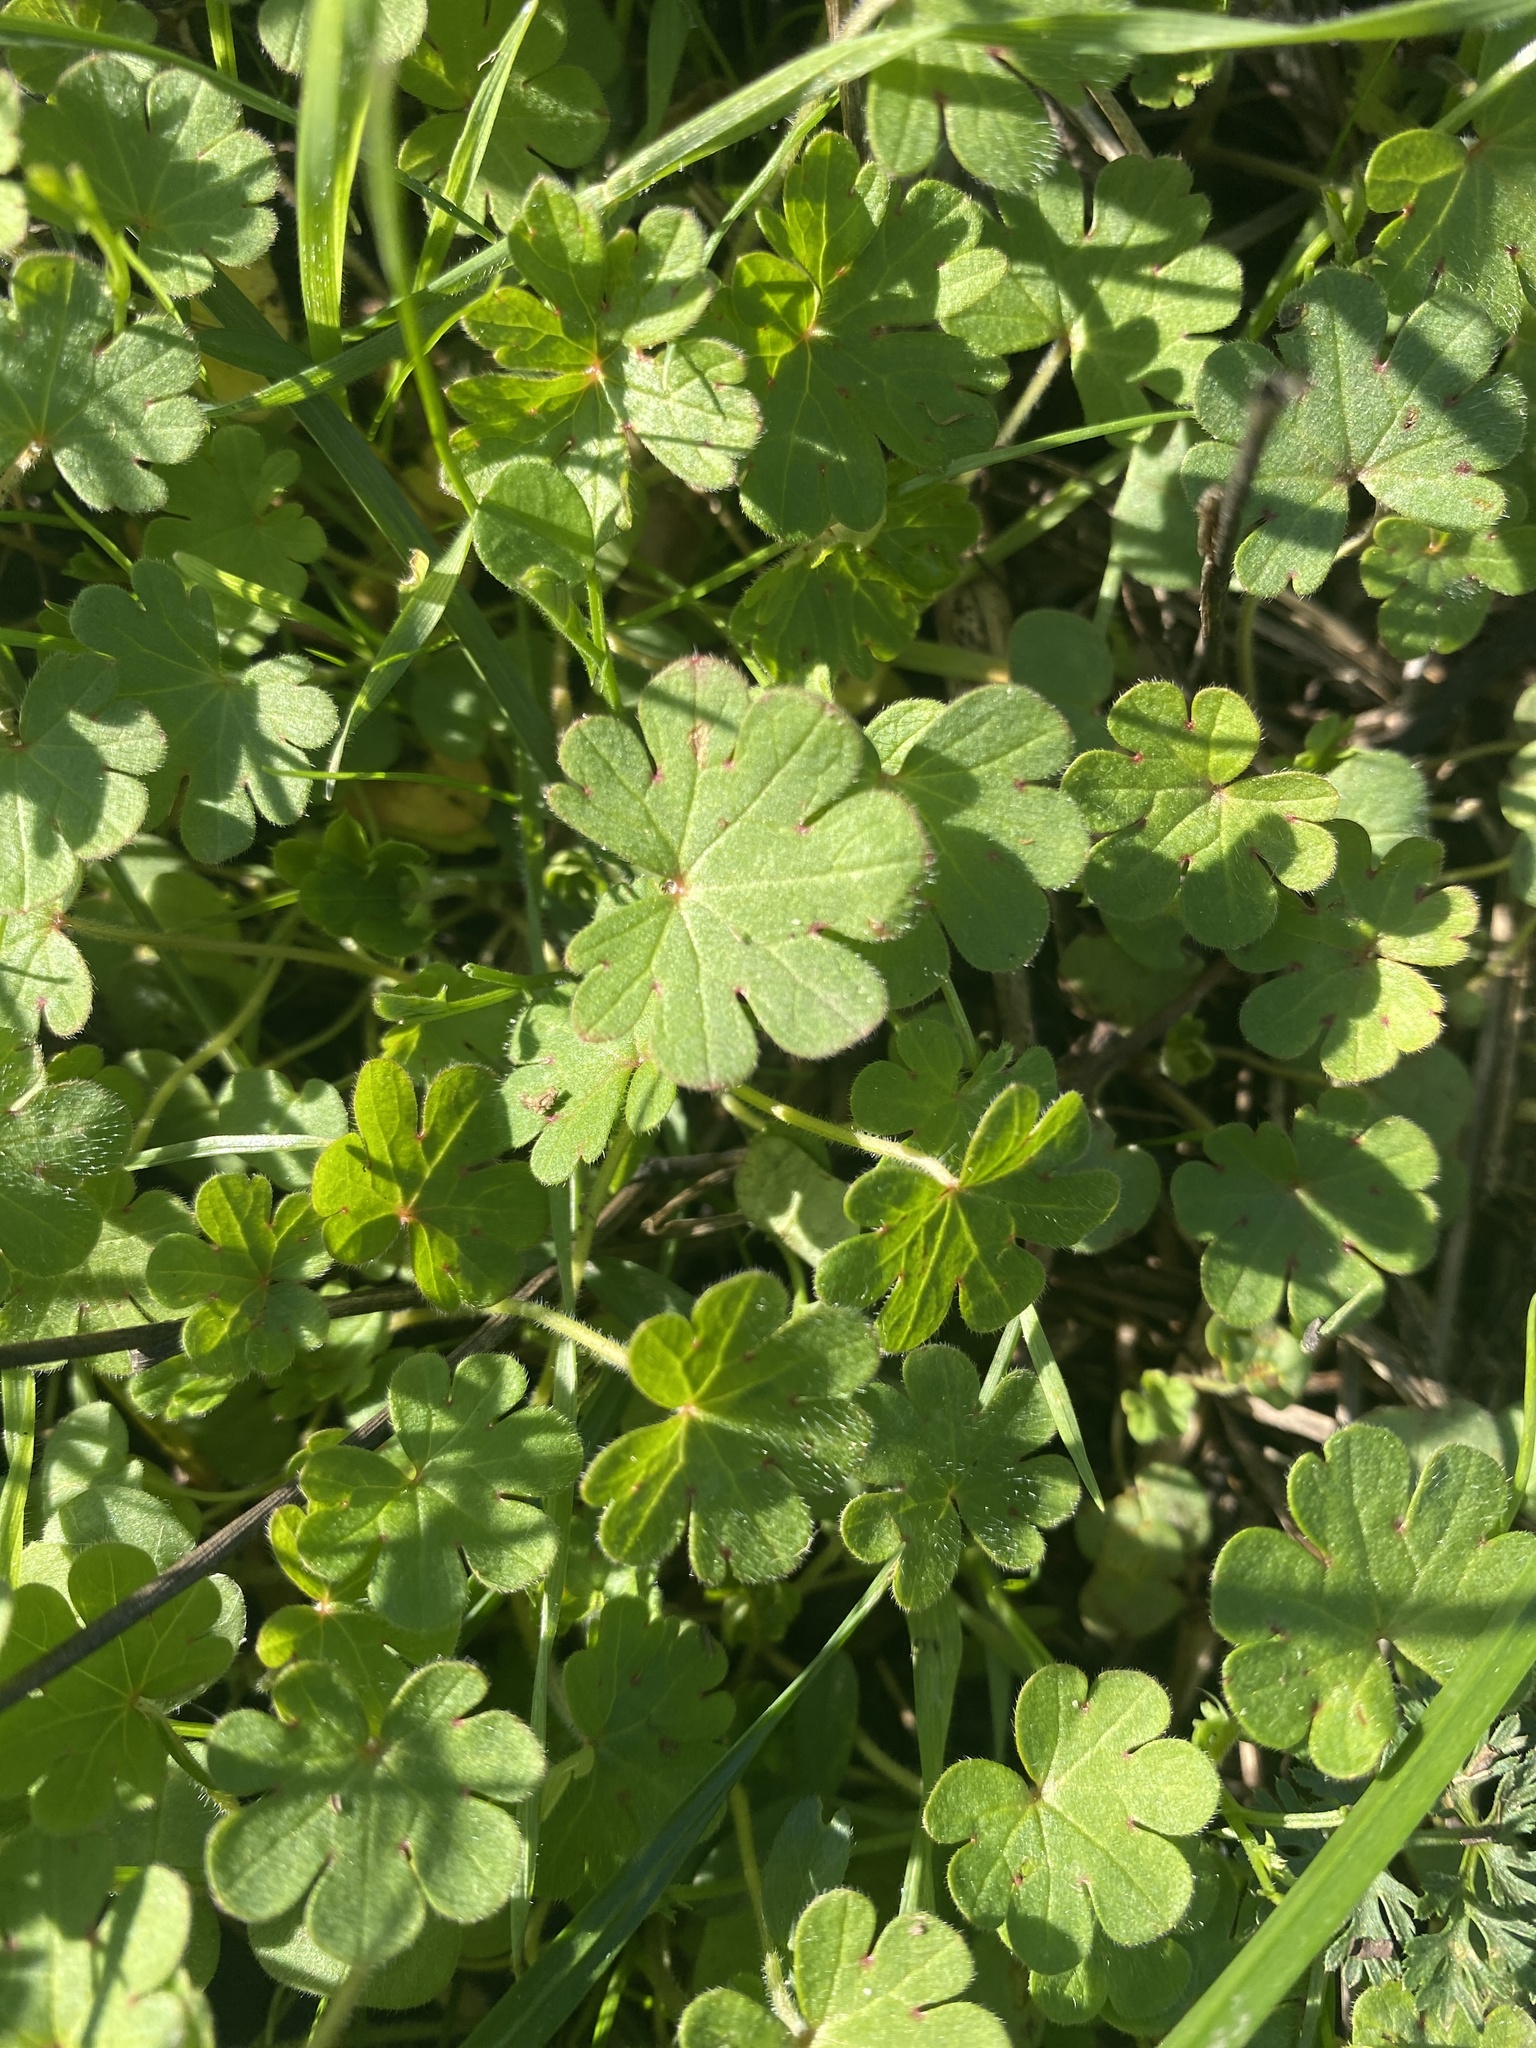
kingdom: Plantae
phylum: Tracheophyta
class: Magnoliopsida
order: Geraniales
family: Geraniaceae
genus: Geranium
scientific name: Geranium molle
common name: Dove's-foot crane's-bill
